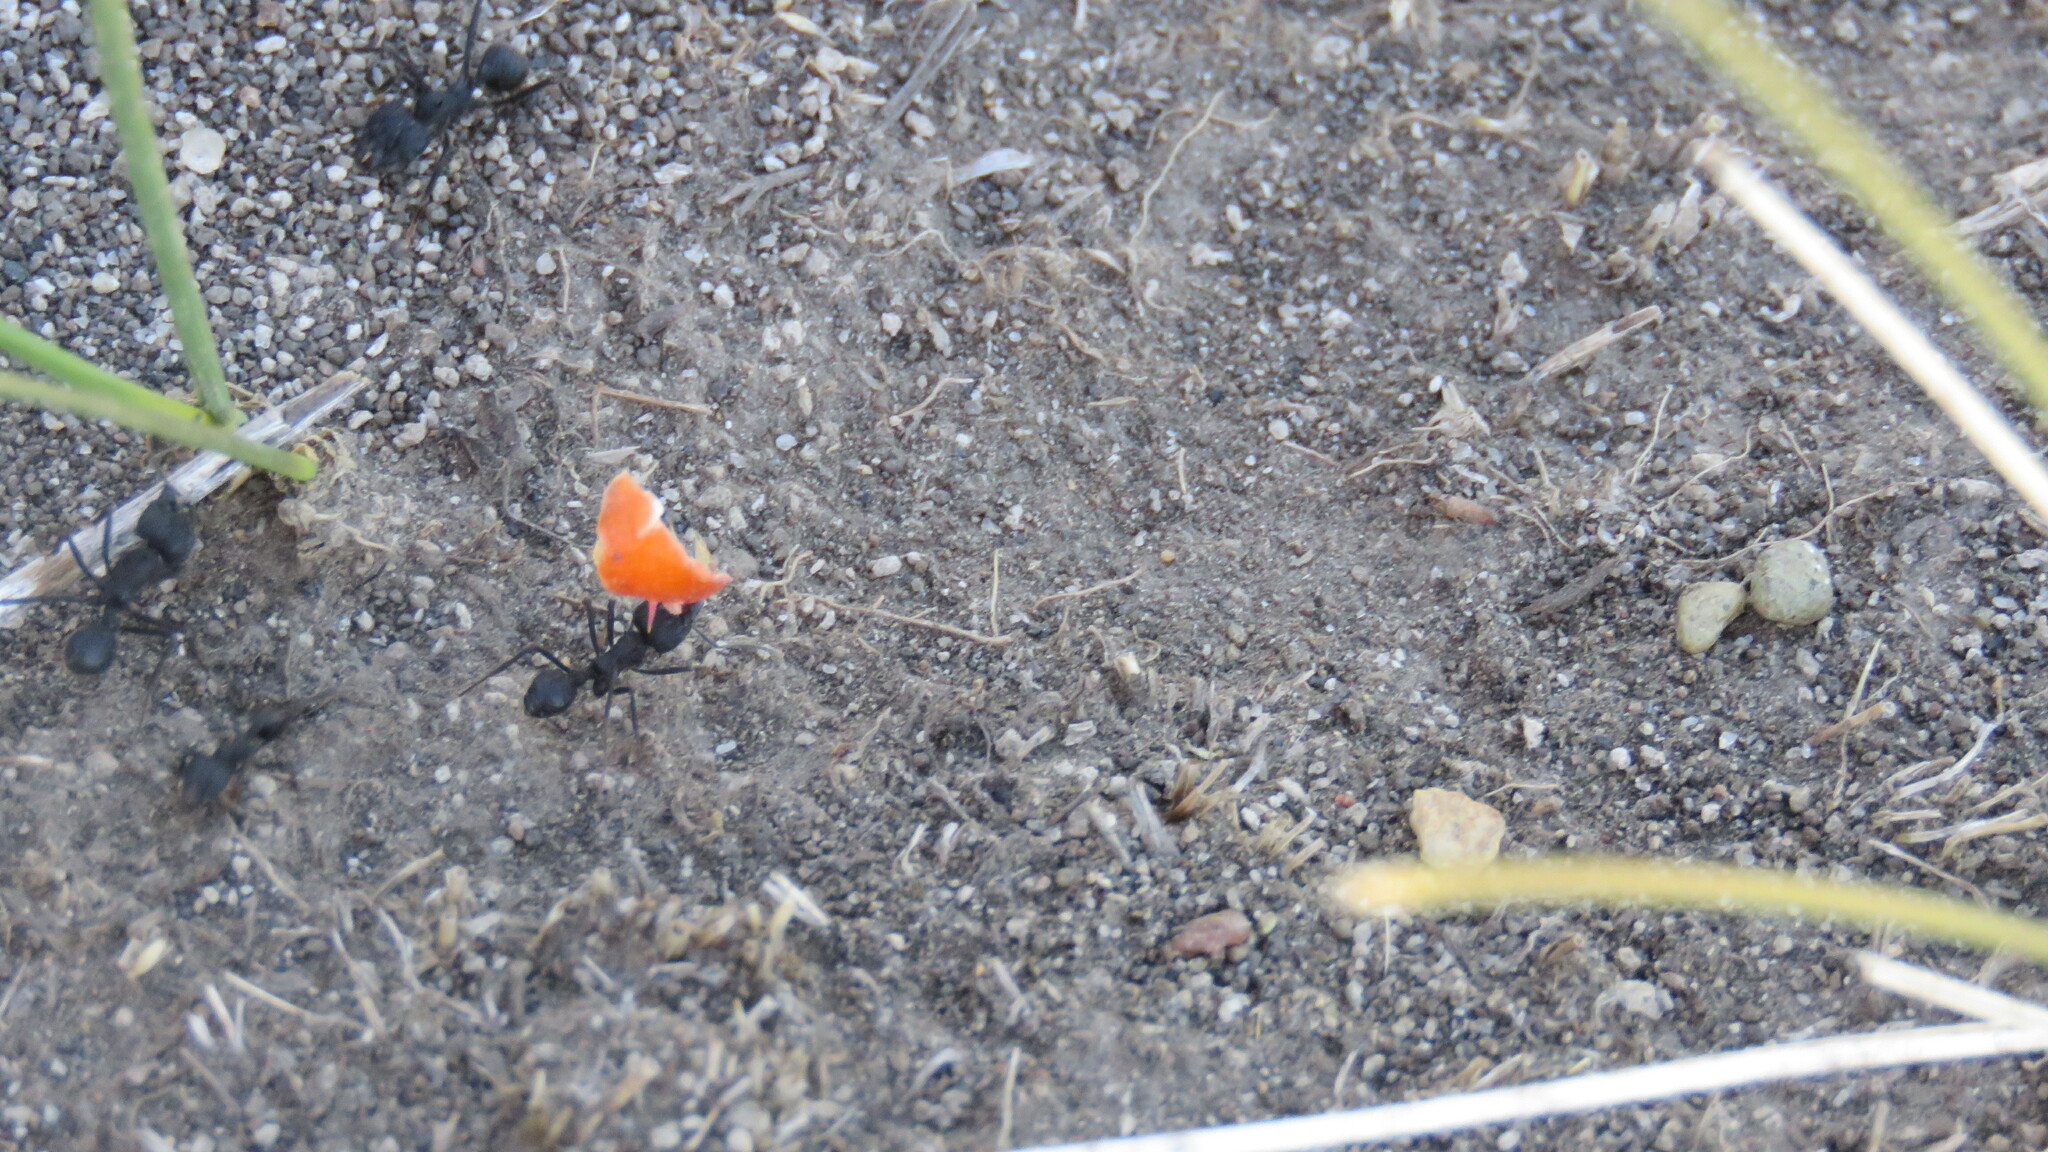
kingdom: Animalia
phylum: Arthropoda
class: Insecta
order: Hymenoptera
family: Formicidae
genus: Acromyrmex
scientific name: Acromyrmex lobicornis
